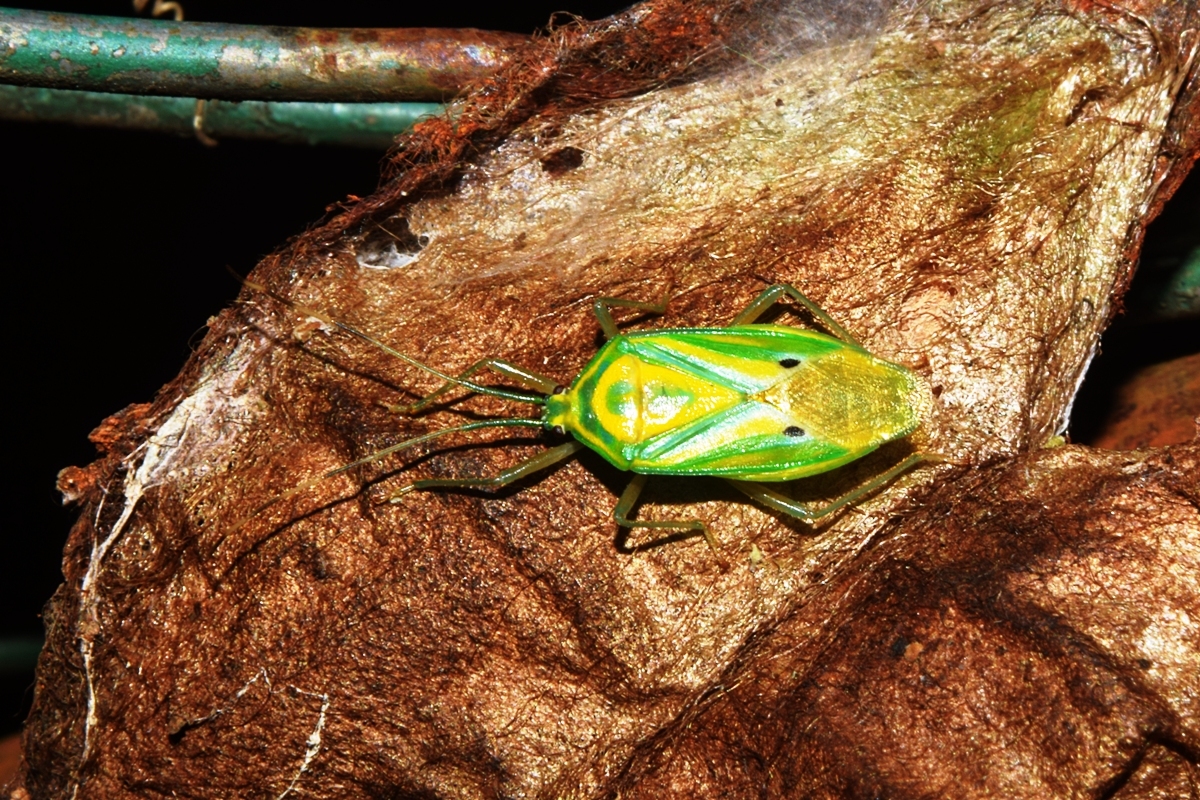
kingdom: Animalia
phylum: Arthropoda
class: Insecta
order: Hemiptera
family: Urostylididae
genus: Urolabida
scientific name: Urolabida
